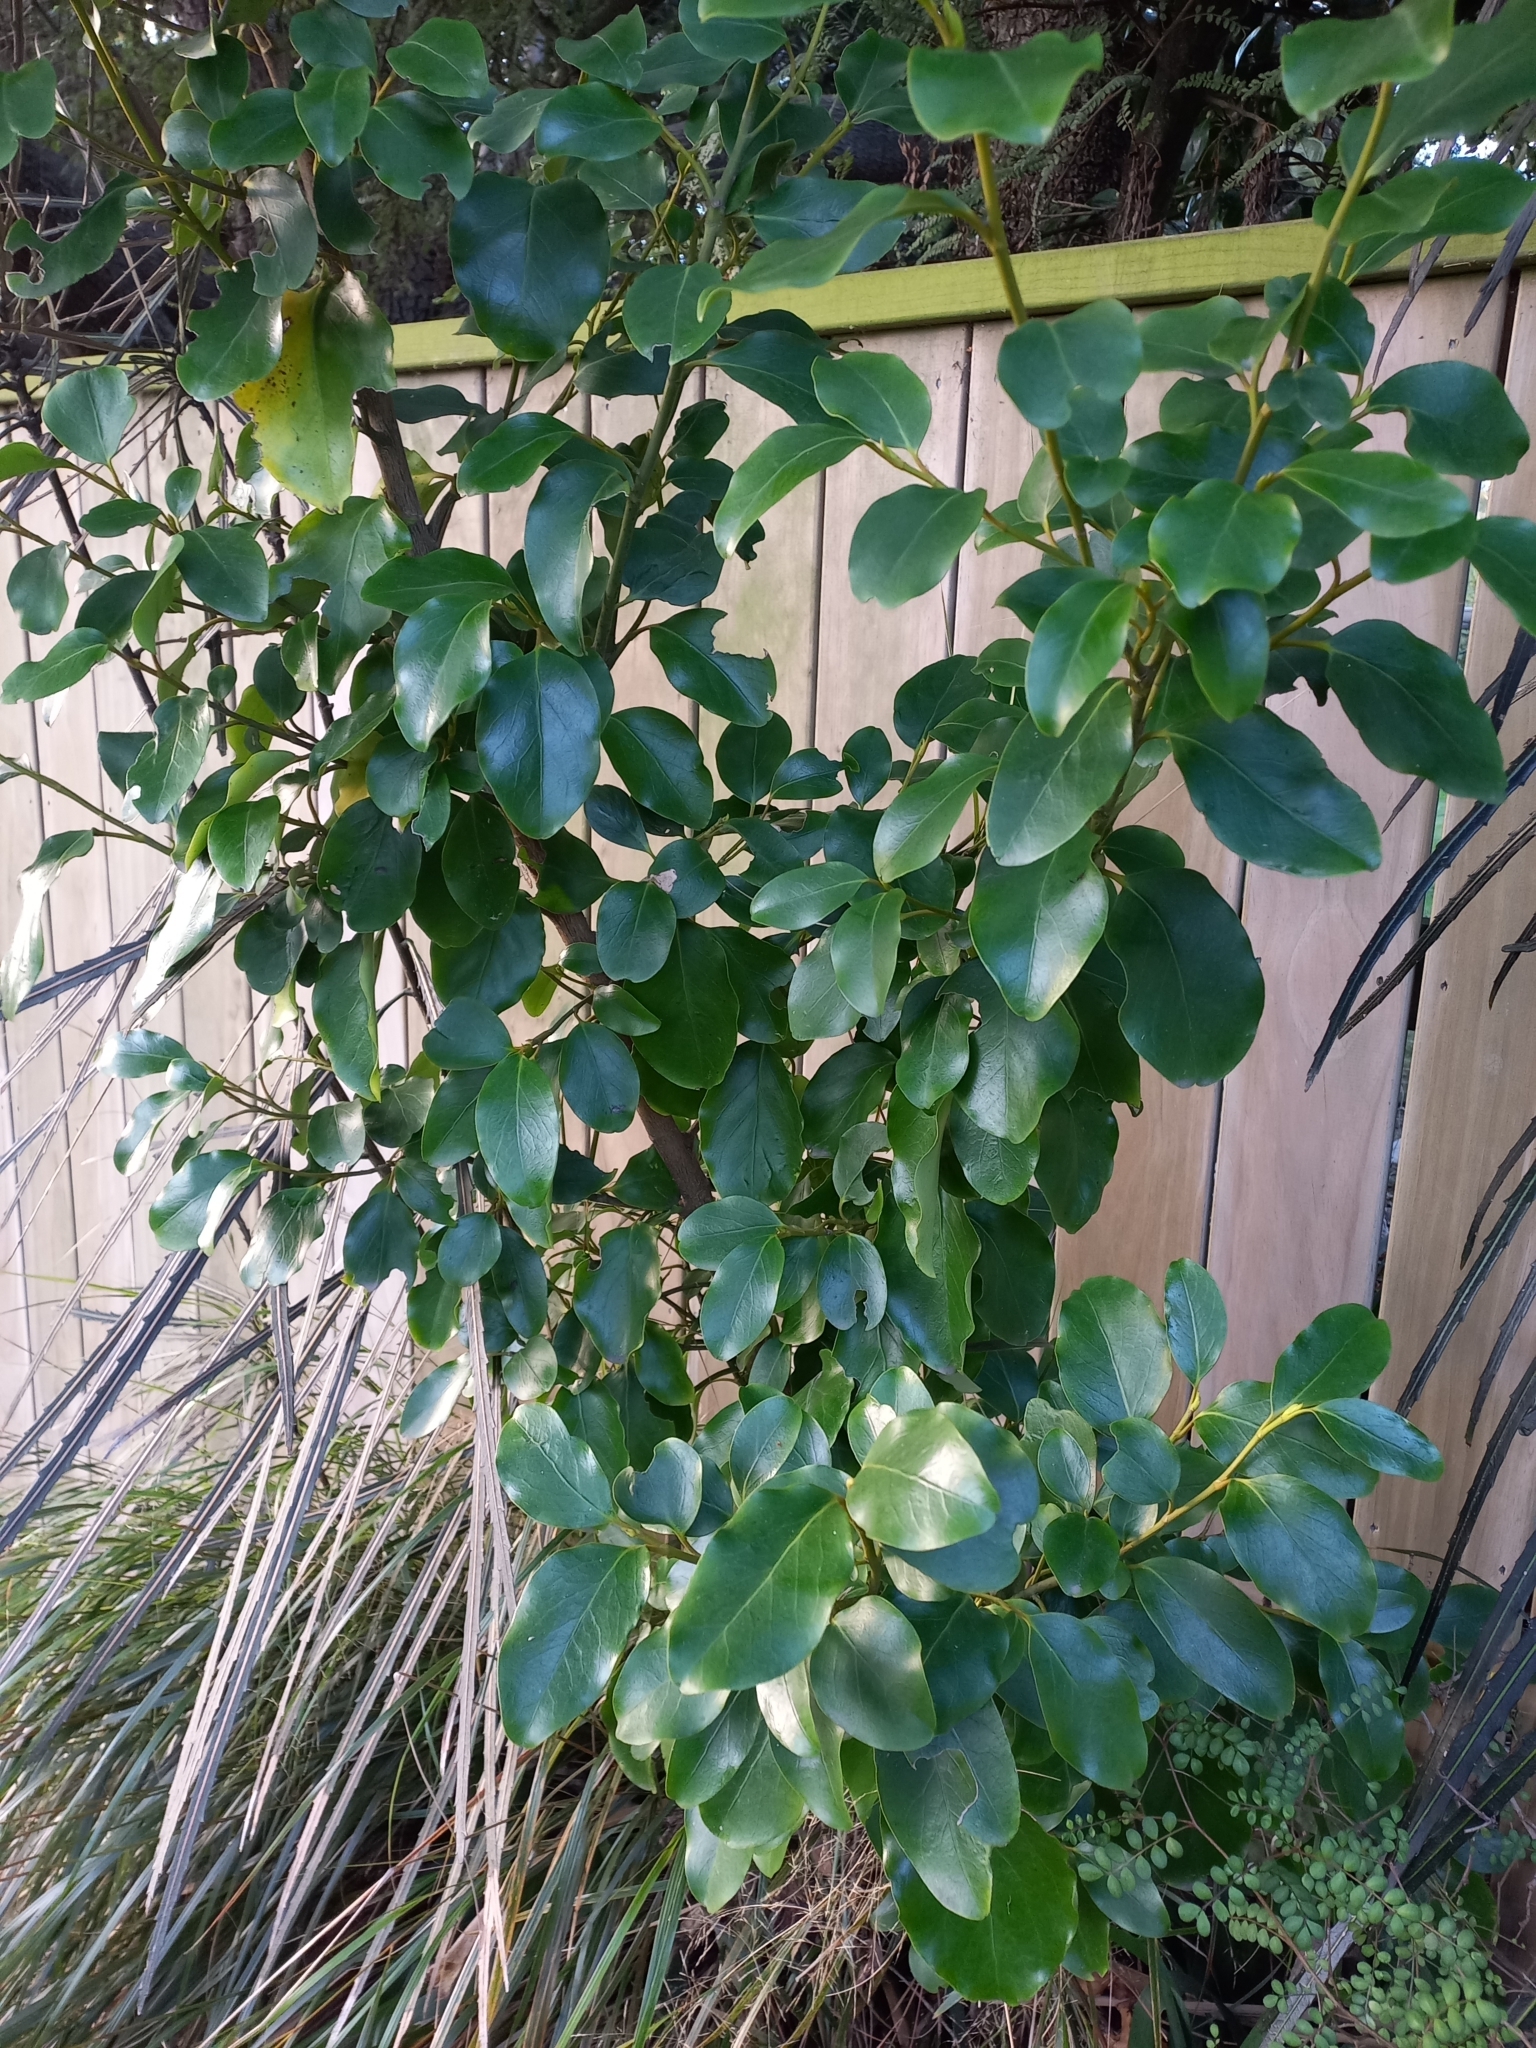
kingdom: Plantae
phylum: Tracheophyta
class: Magnoliopsida
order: Apiales
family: Griseliniaceae
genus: Griselinia
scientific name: Griselinia littoralis
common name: New zealand broadleaf
